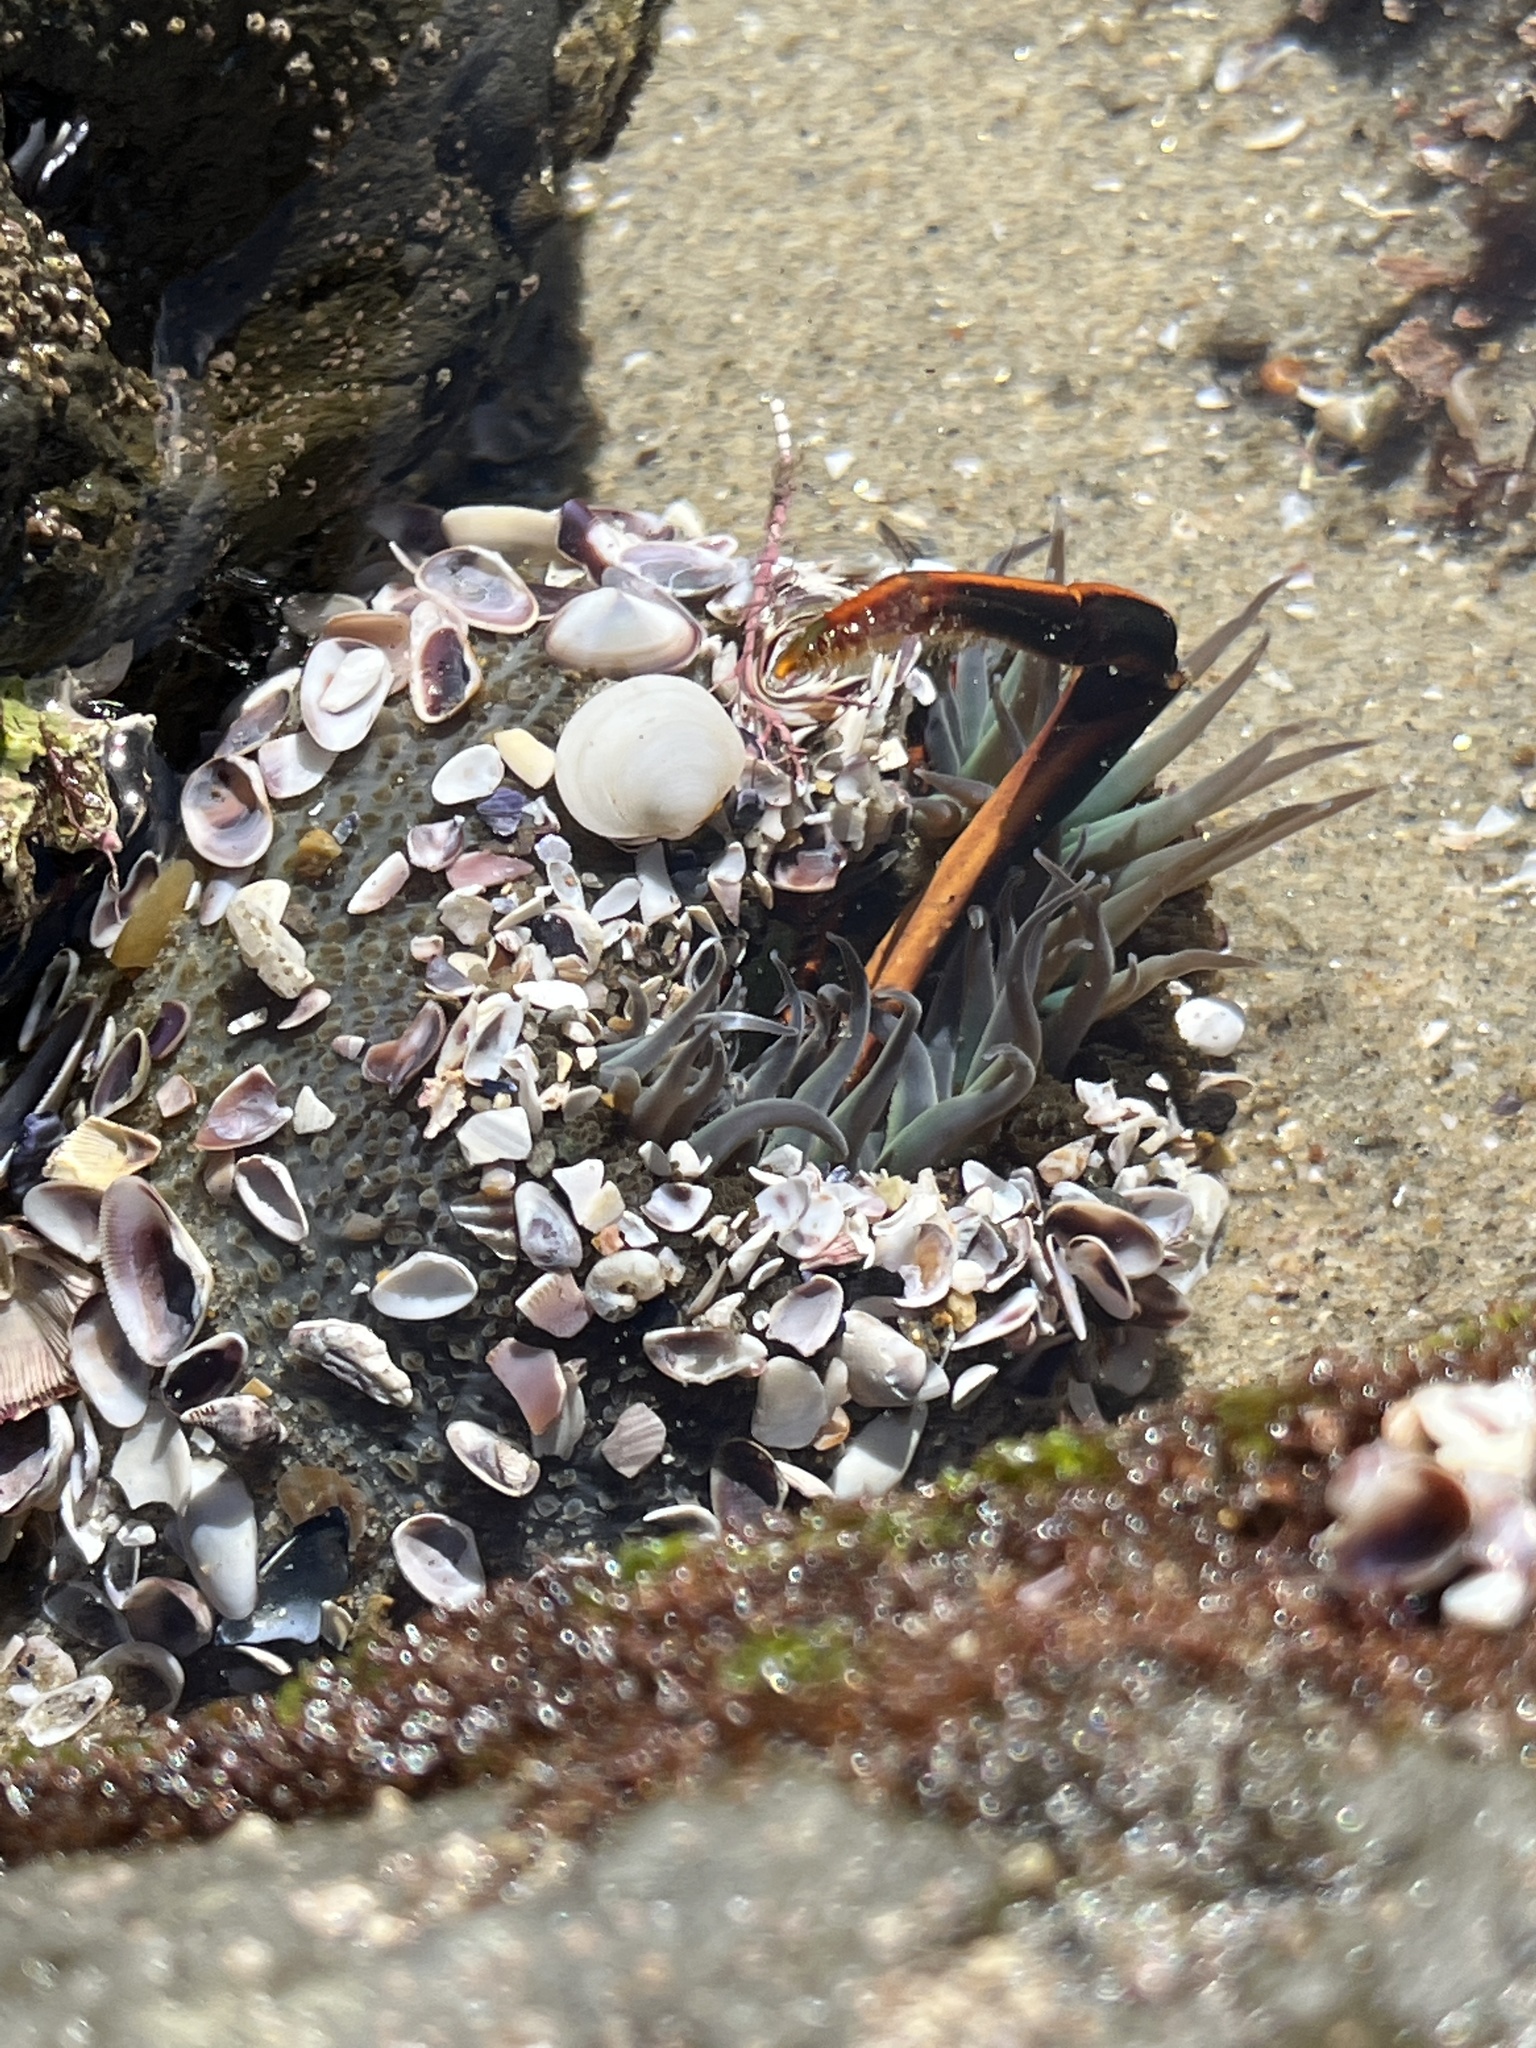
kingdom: Animalia
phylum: Cnidaria
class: Anthozoa
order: Actiniaria
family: Actiniidae
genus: Anthopleura
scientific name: Anthopleura sola
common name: Sun anemone
